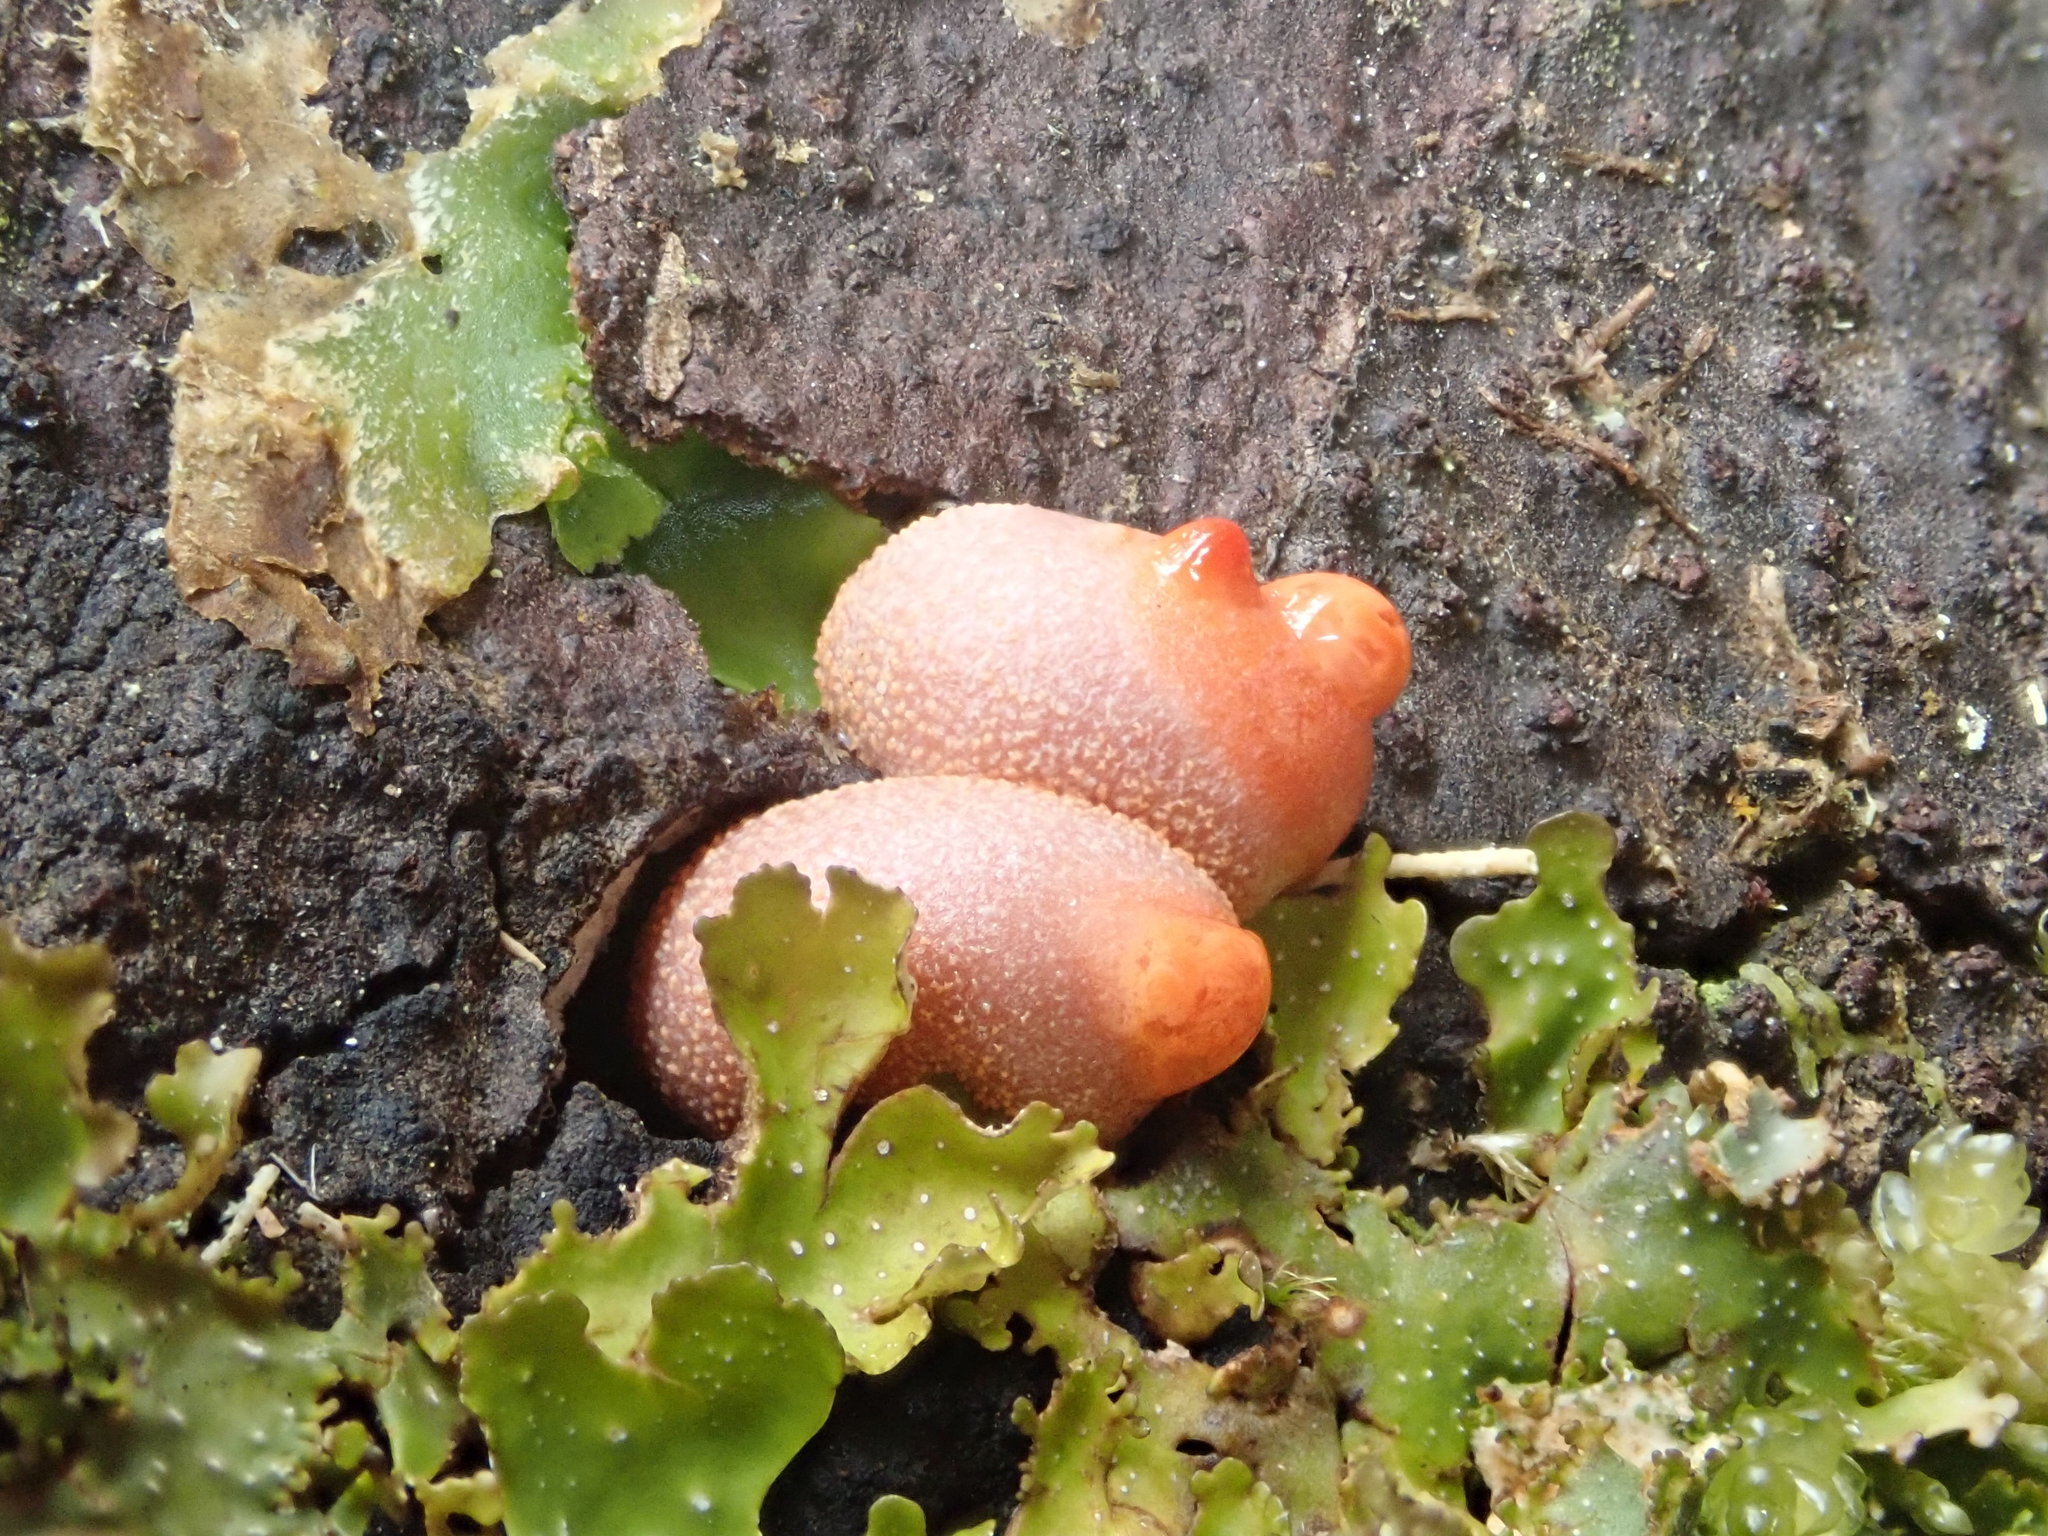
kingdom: Protozoa
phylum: Mycetozoa
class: Myxomycetes
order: Cribrariales
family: Tubiferaceae
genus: Lycogala
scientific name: Lycogala epidendrum
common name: Wolf's milk
